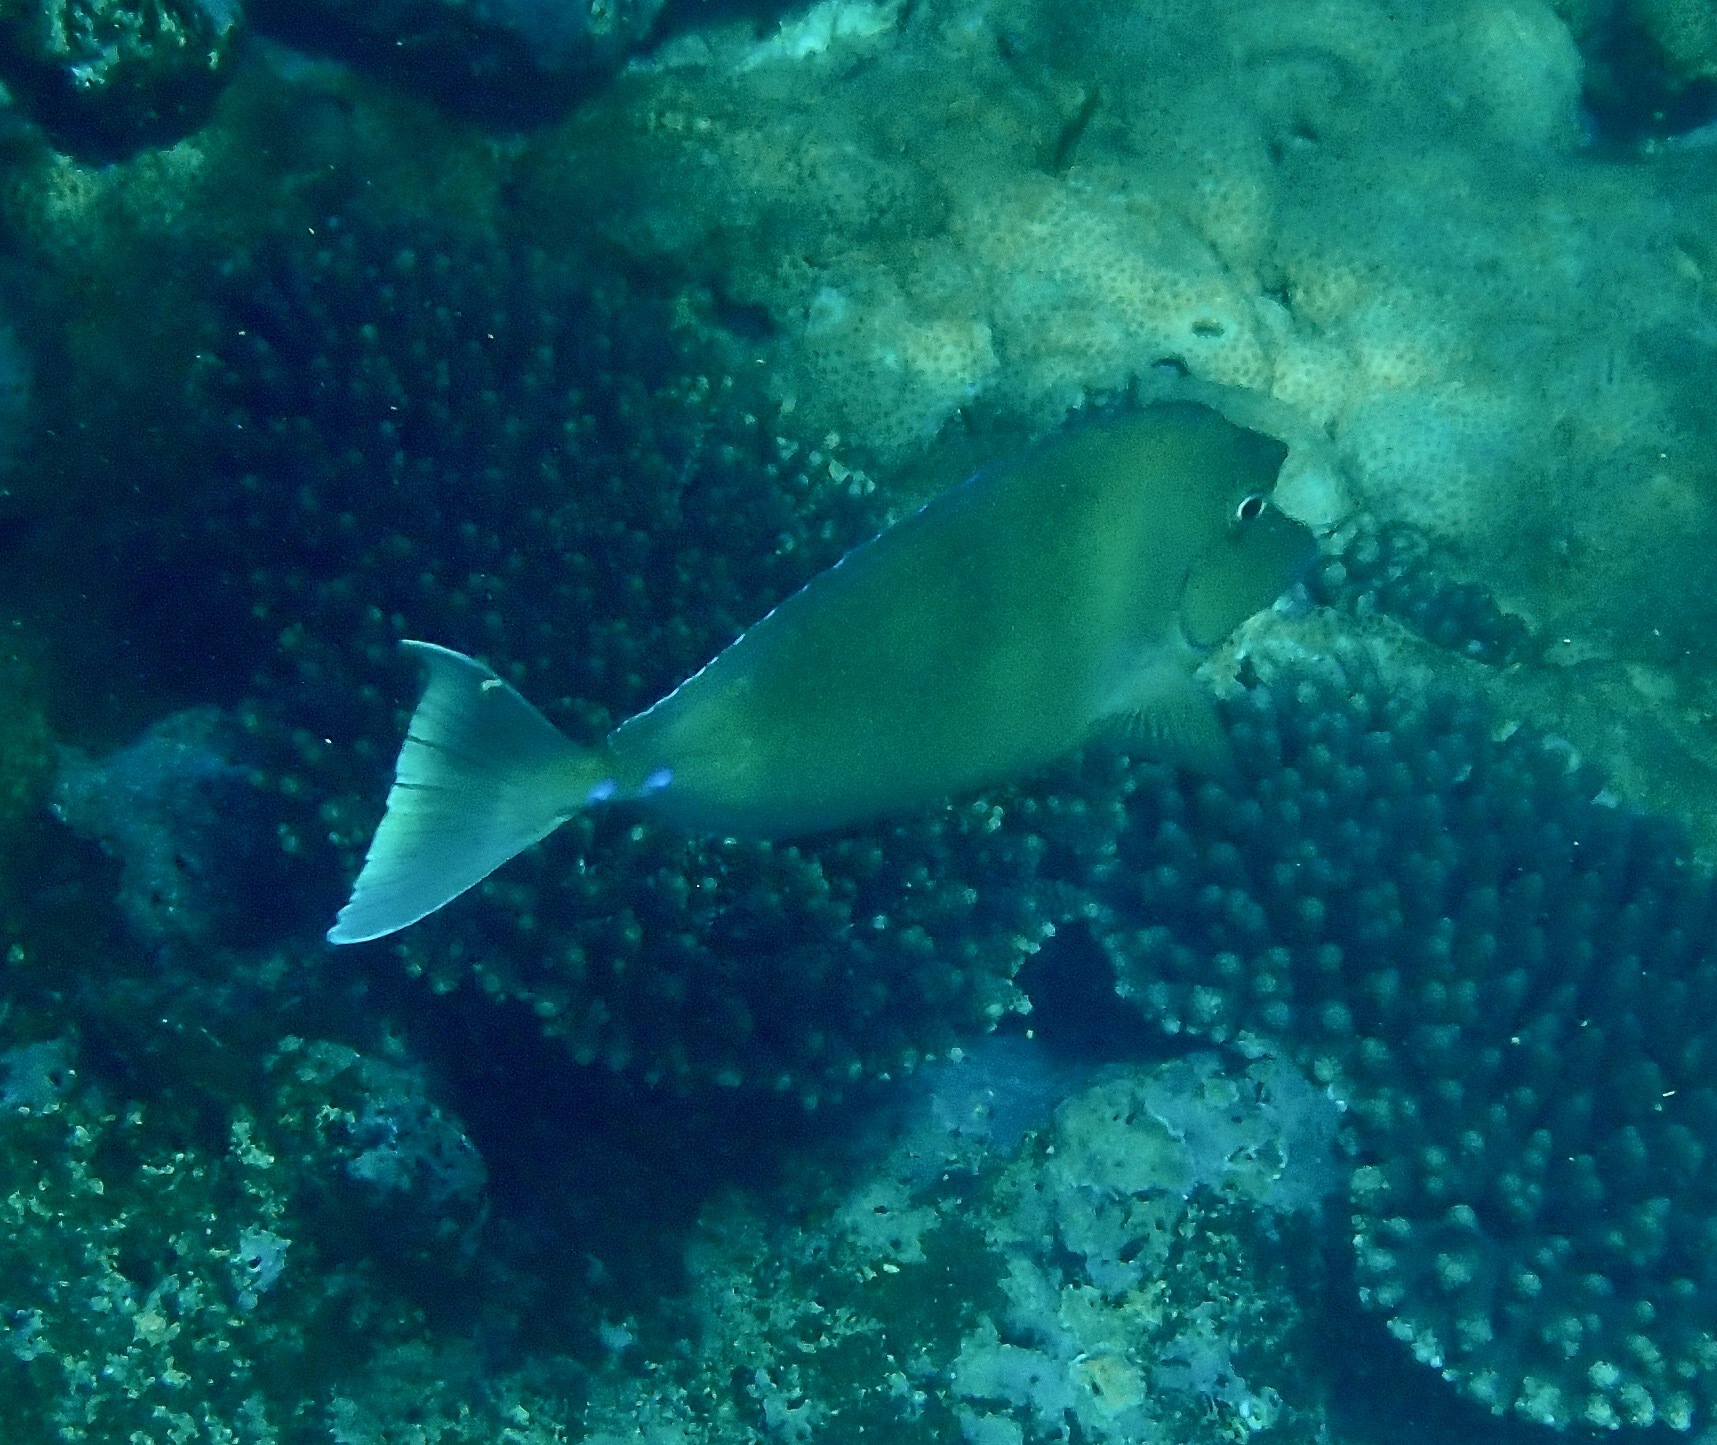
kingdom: Animalia
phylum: Chordata
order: Perciformes
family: Acanthuridae
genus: Naso
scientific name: Naso unicornis
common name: Bluespine unicornfish
